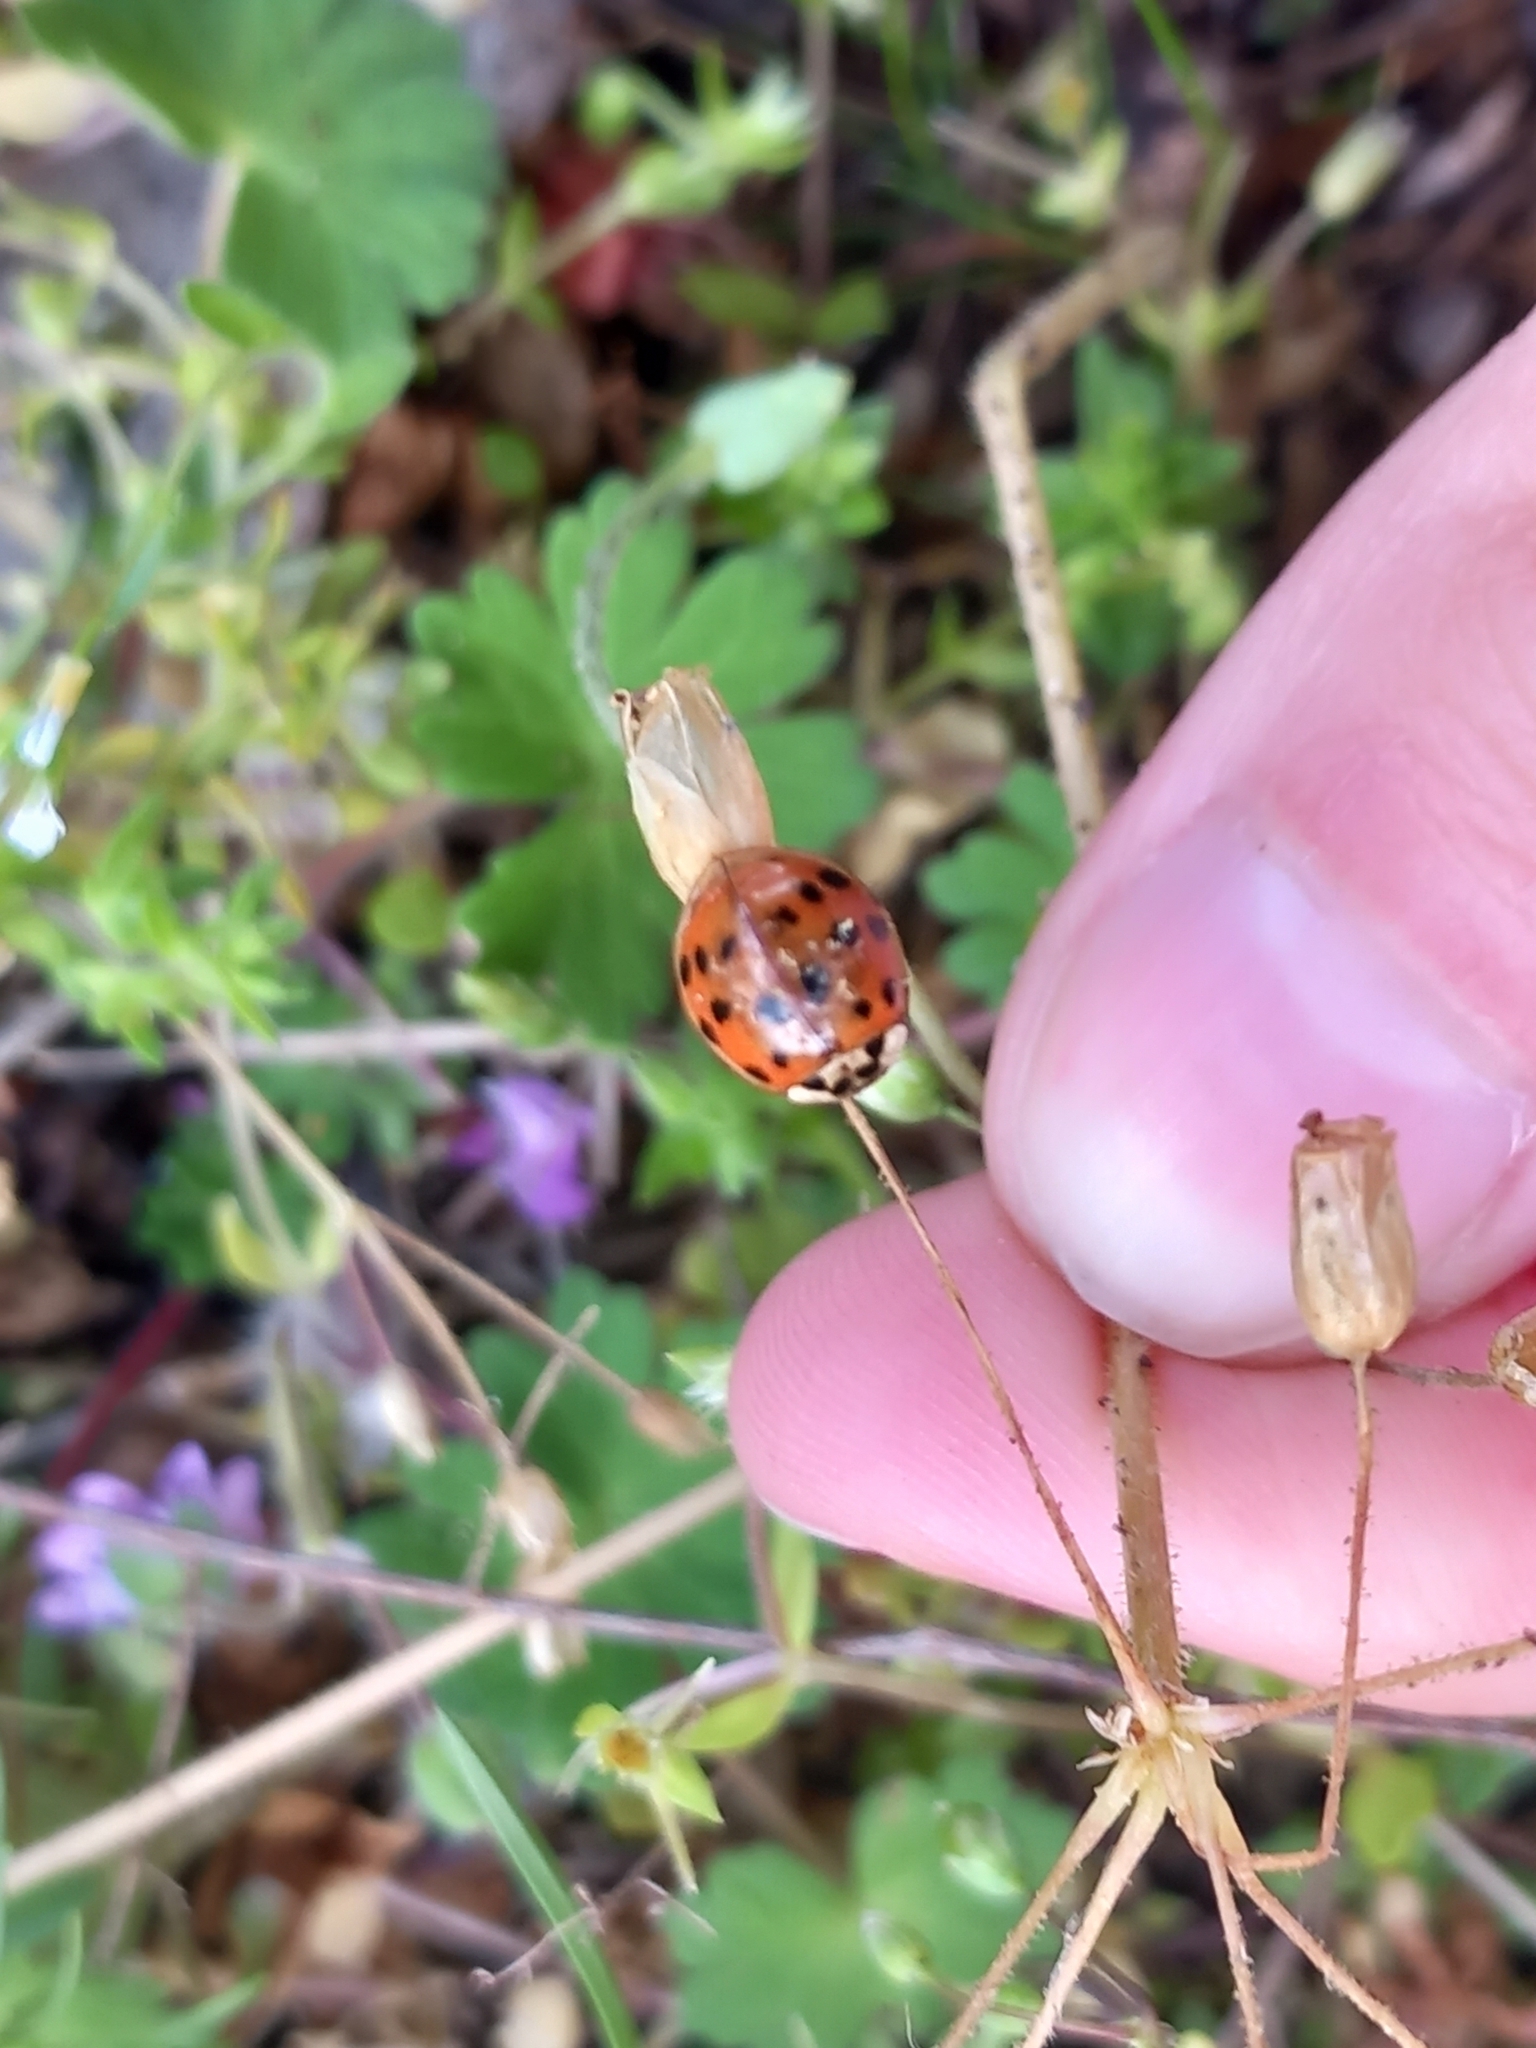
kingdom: Animalia
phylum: Arthropoda
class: Insecta
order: Coleoptera
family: Coccinellidae
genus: Harmonia
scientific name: Harmonia axyridis
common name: Harlequin ladybird
